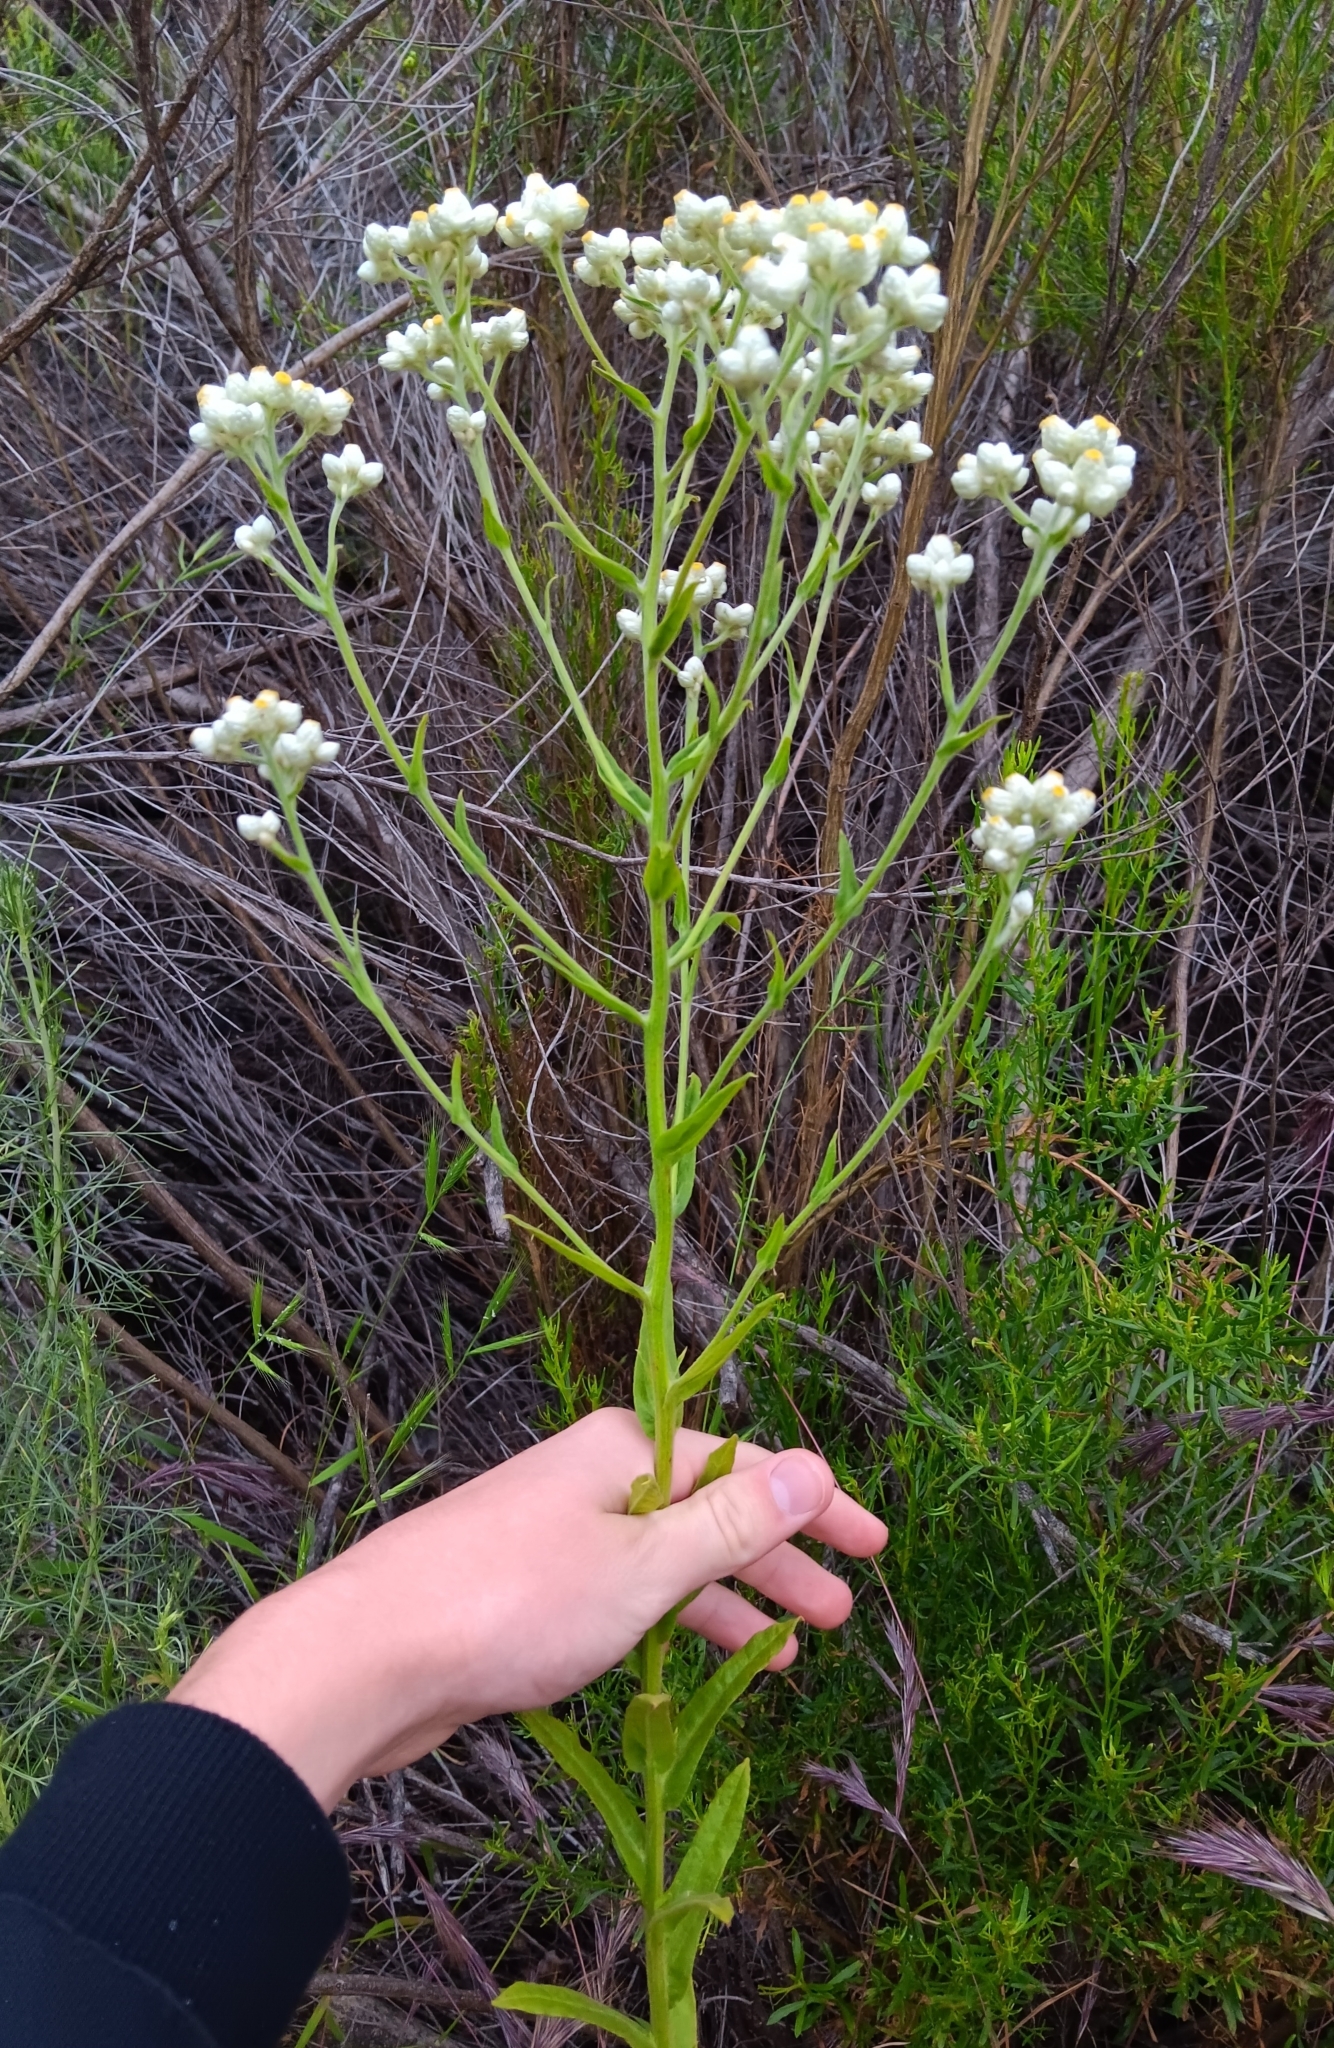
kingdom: Plantae
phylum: Tracheophyta
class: Magnoliopsida
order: Asterales
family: Asteraceae
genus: Pseudognaphalium
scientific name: Pseudognaphalium californicum
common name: California rabbit-tobacco
